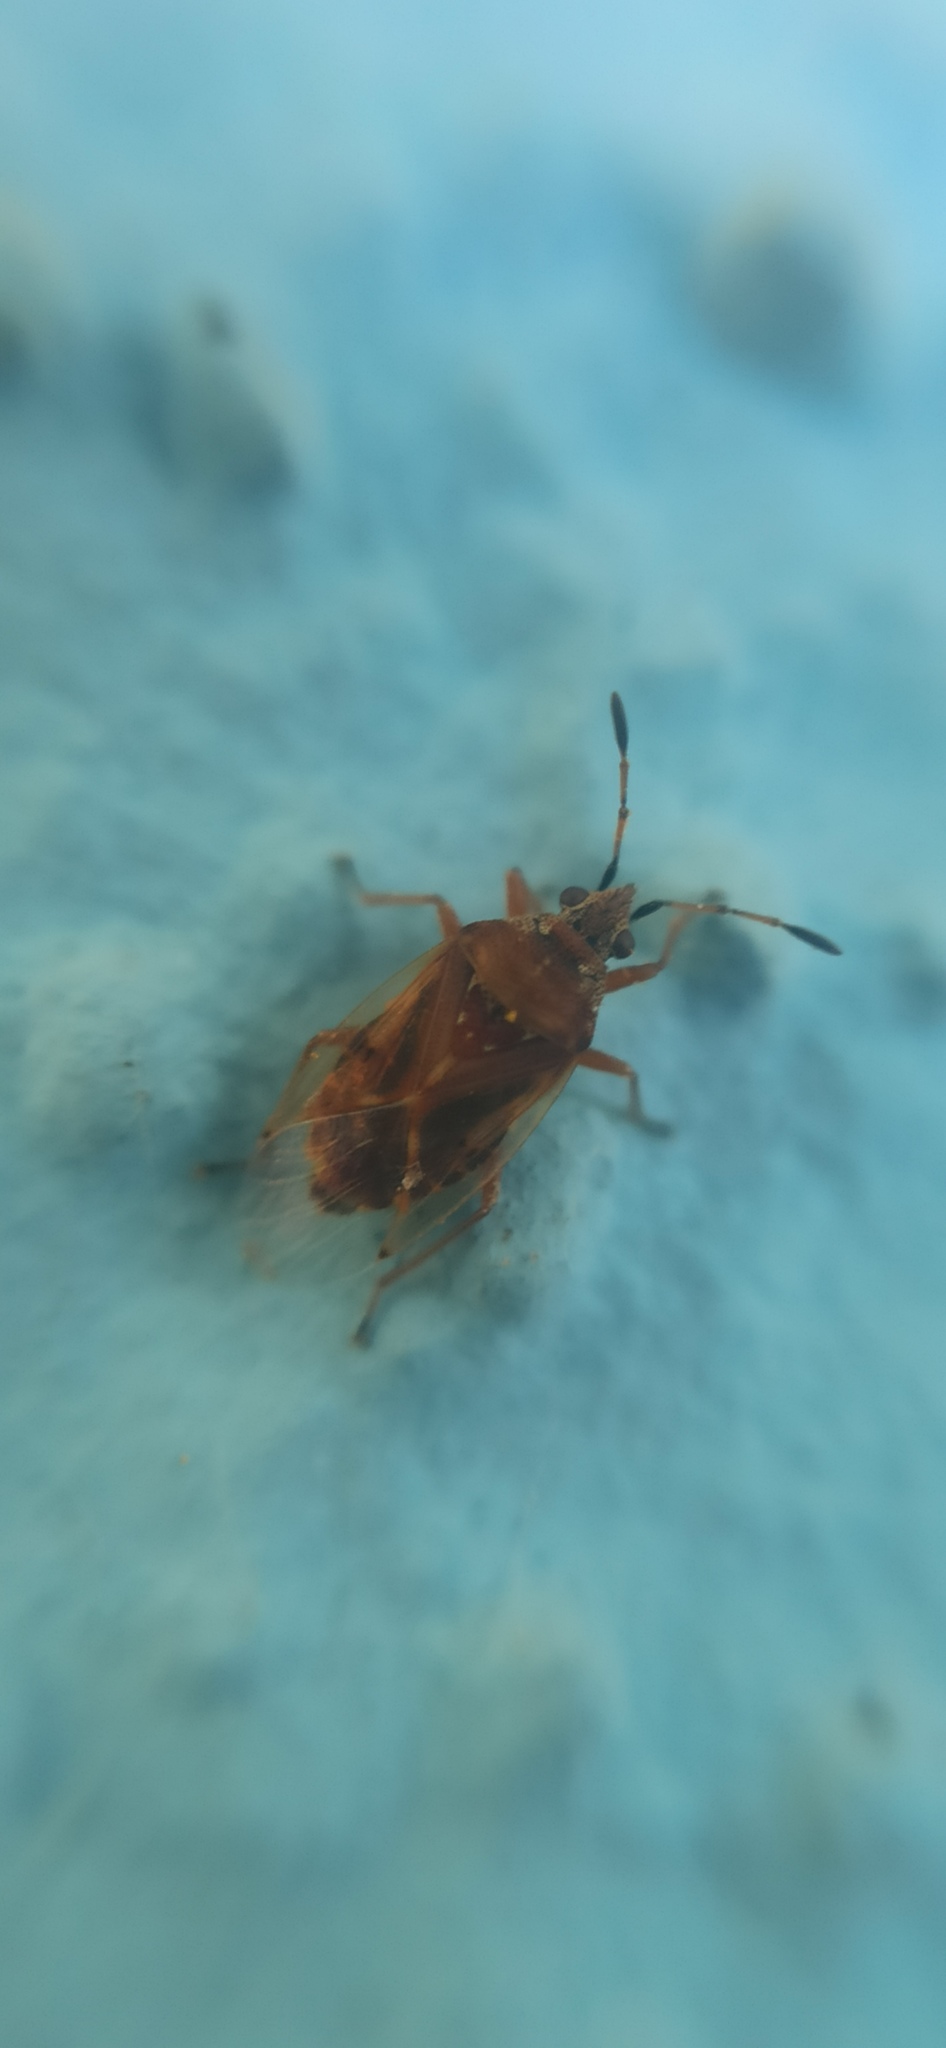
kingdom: Animalia
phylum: Arthropoda
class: Insecta
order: Hemiptera
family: Lygaeidae
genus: Kleidocerys
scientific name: Kleidocerys resedae
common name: Birch catkin bug
